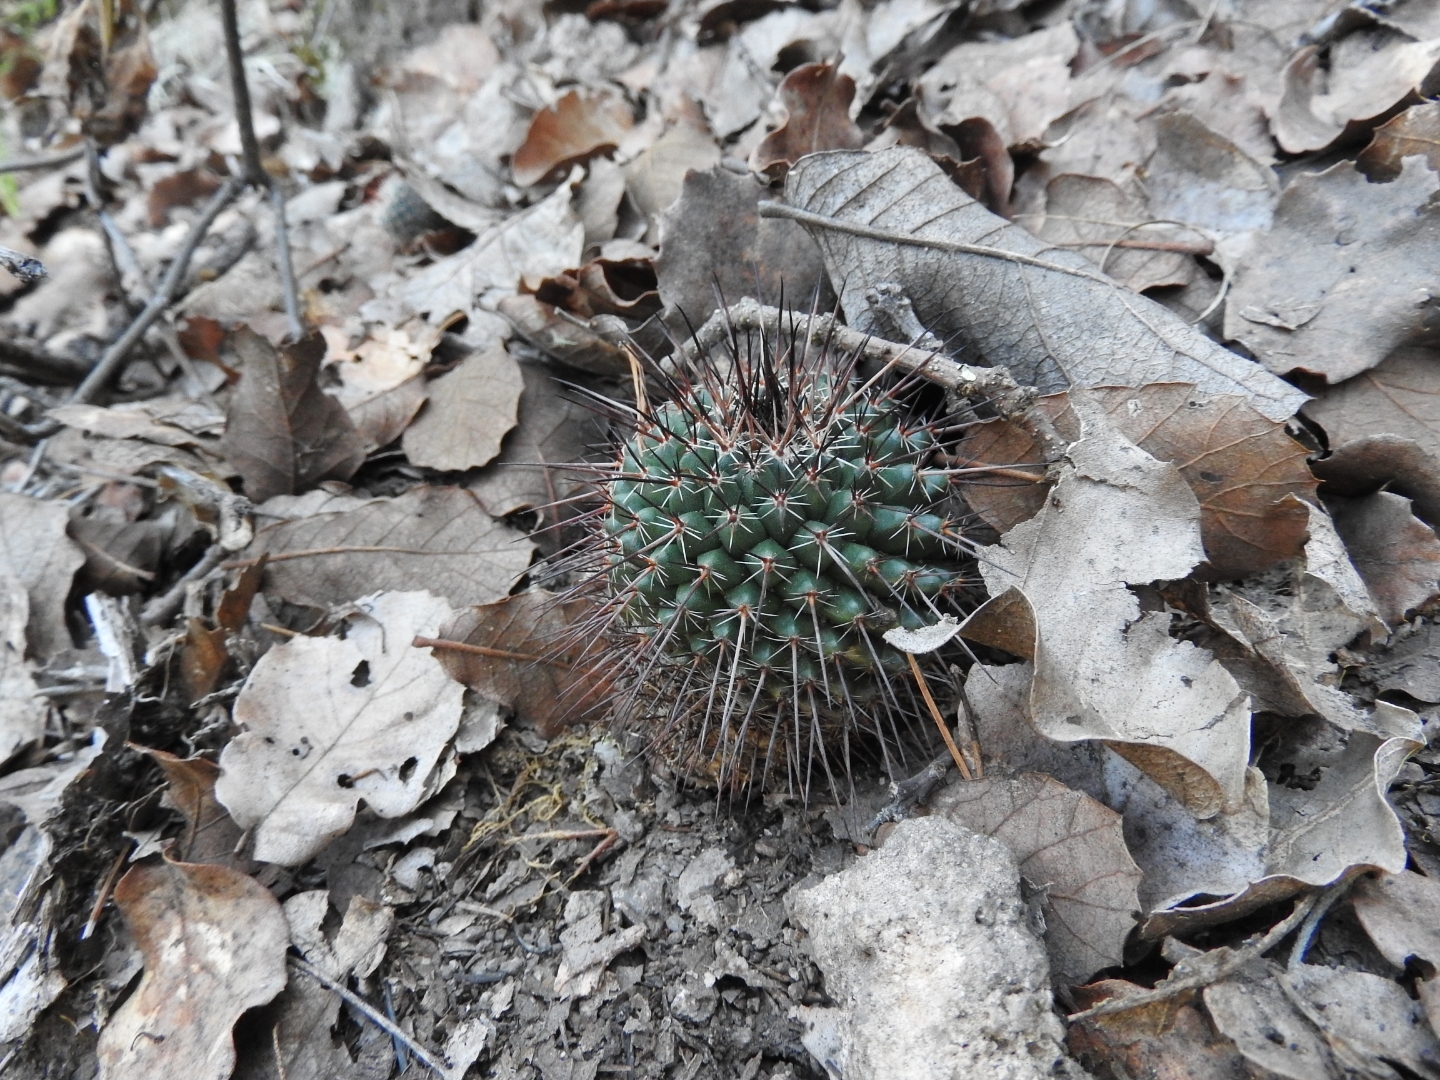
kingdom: Plantae
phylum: Tracheophyta
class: Magnoliopsida
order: Caryophyllales
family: Cactaceae
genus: Mammillaria
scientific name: Mammillaria gigantea
